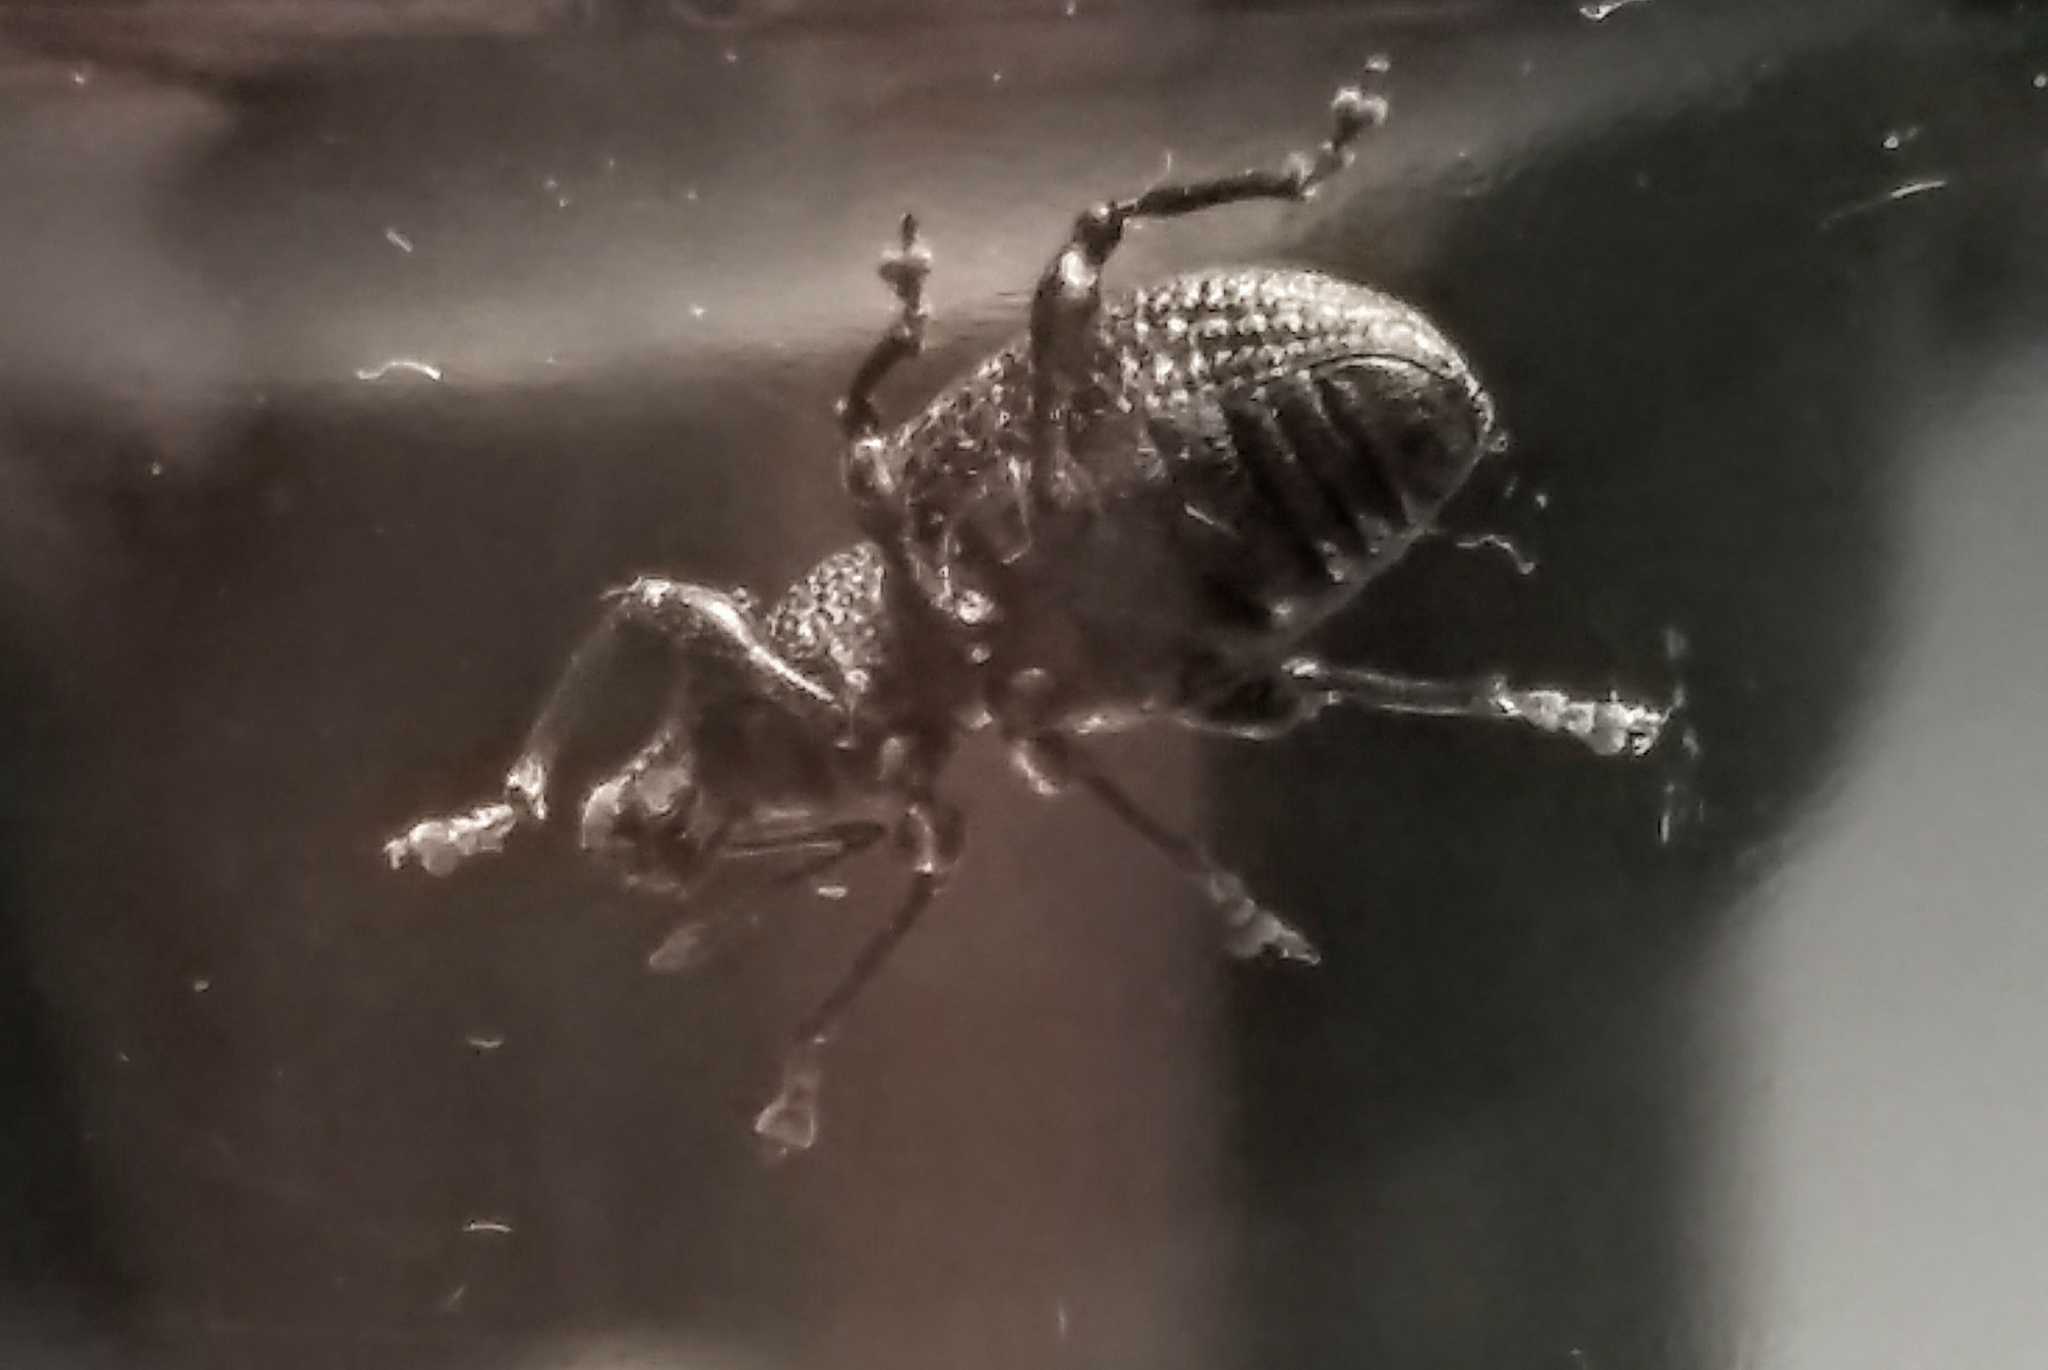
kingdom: Animalia
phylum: Arthropoda
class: Insecta
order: Coleoptera
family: Curculionidae
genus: Otiorhynchus
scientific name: Otiorhynchus sulcatus
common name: Black vine weevil
